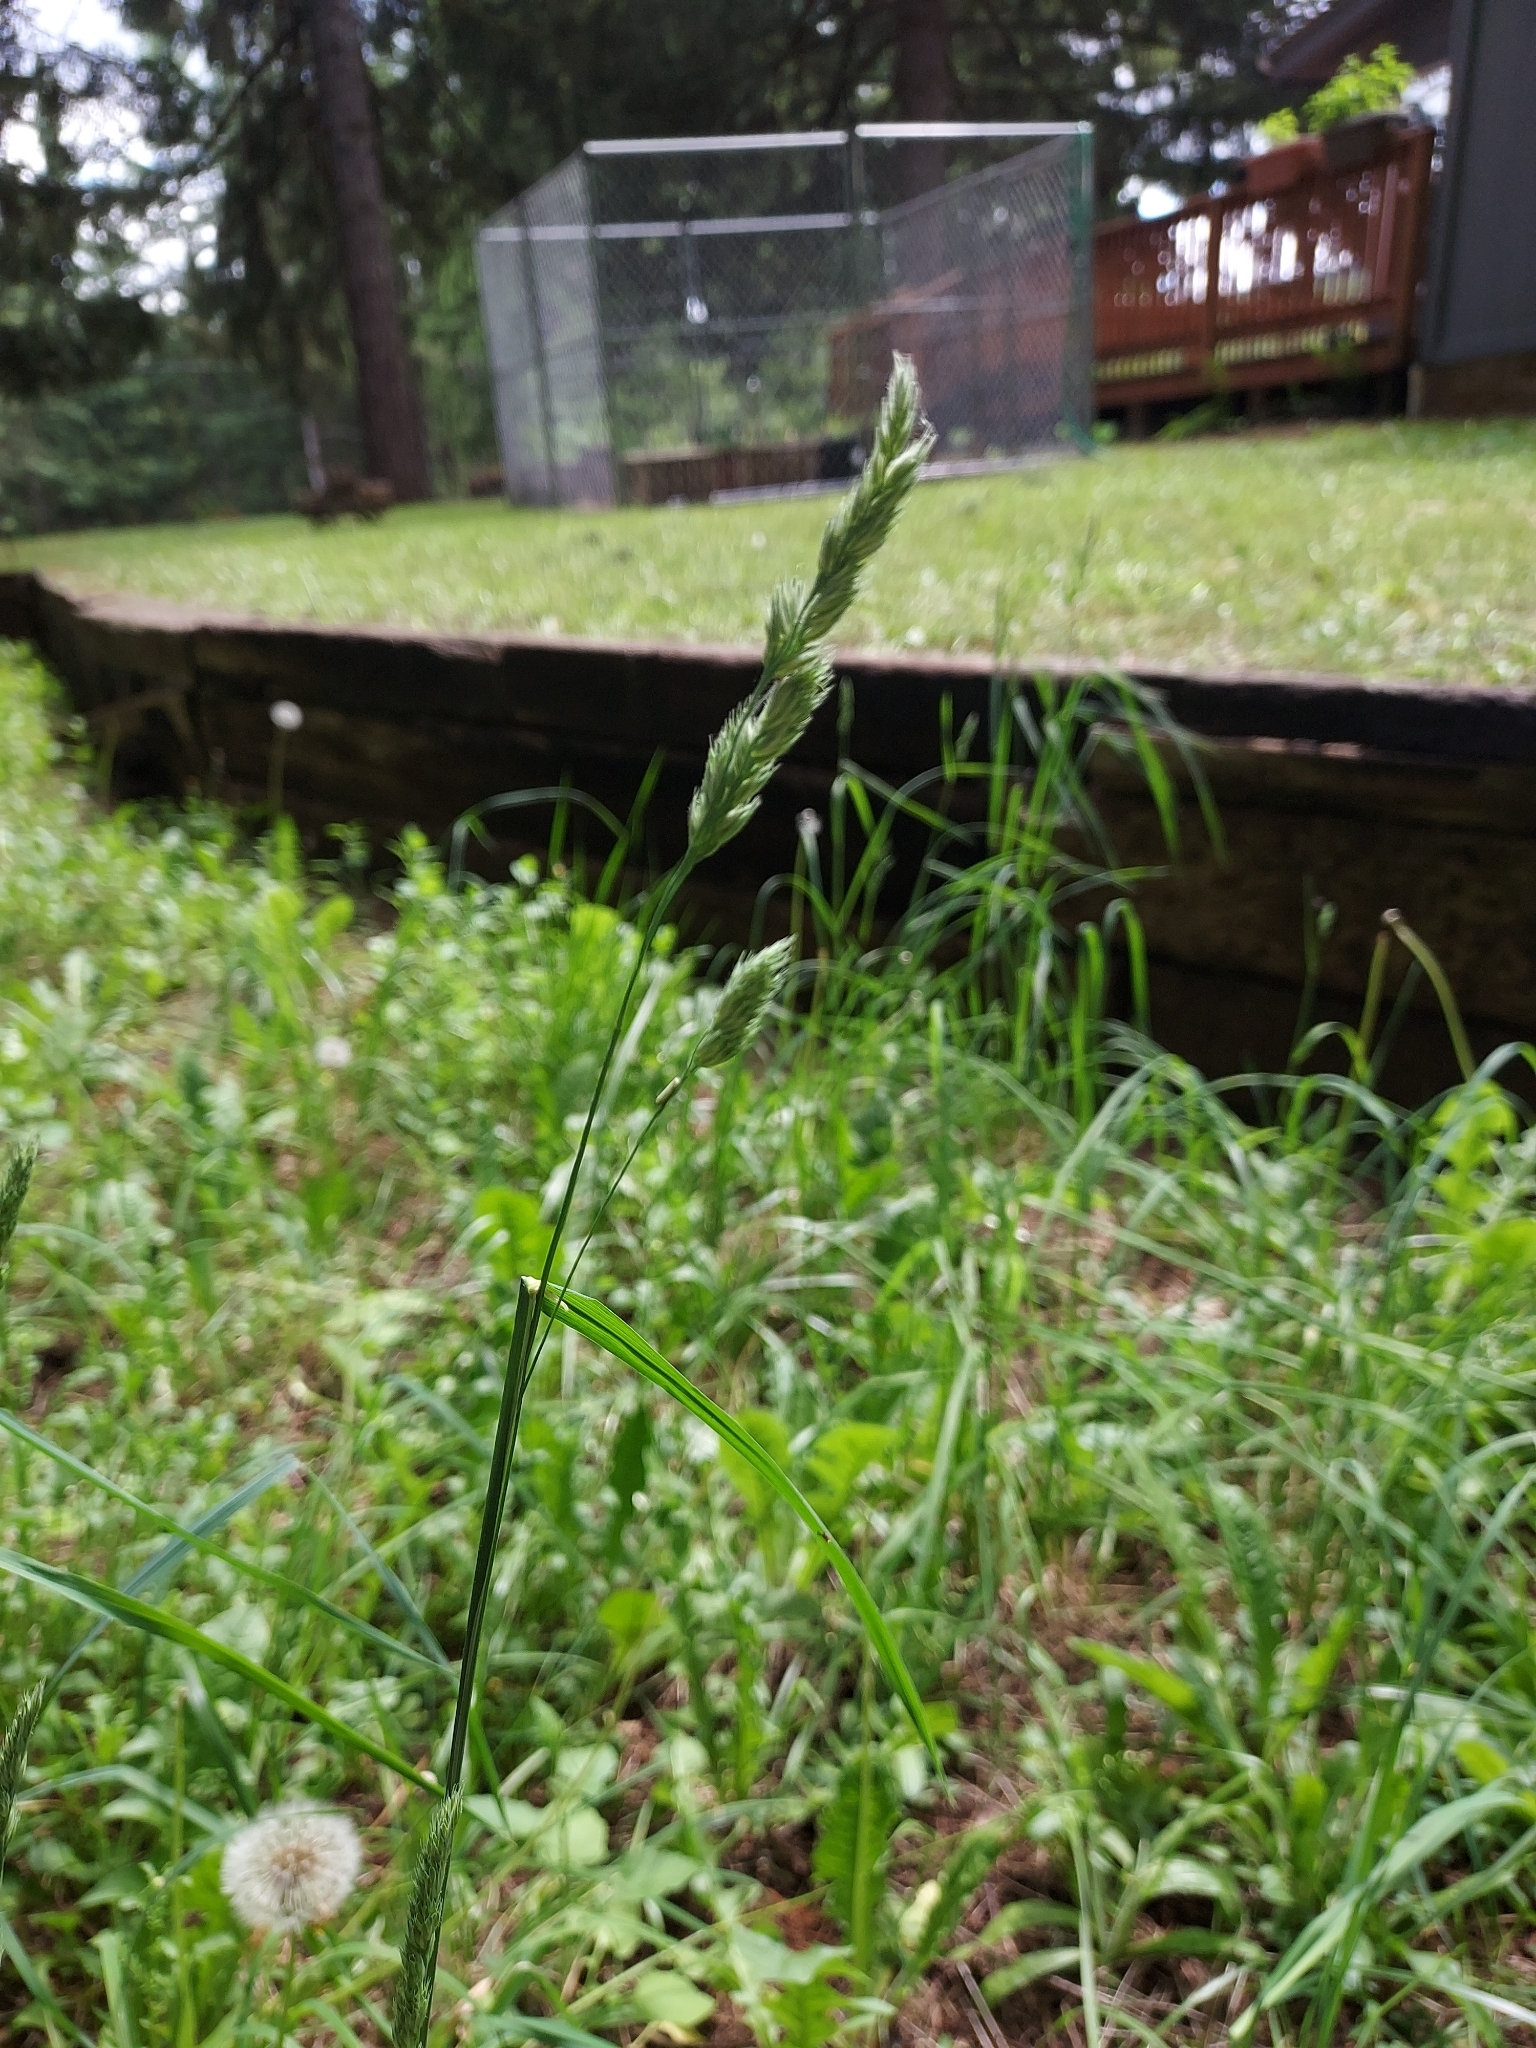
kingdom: Plantae
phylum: Tracheophyta
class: Liliopsida
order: Poales
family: Poaceae
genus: Dactylis
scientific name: Dactylis glomerata
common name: Orchardgrass
